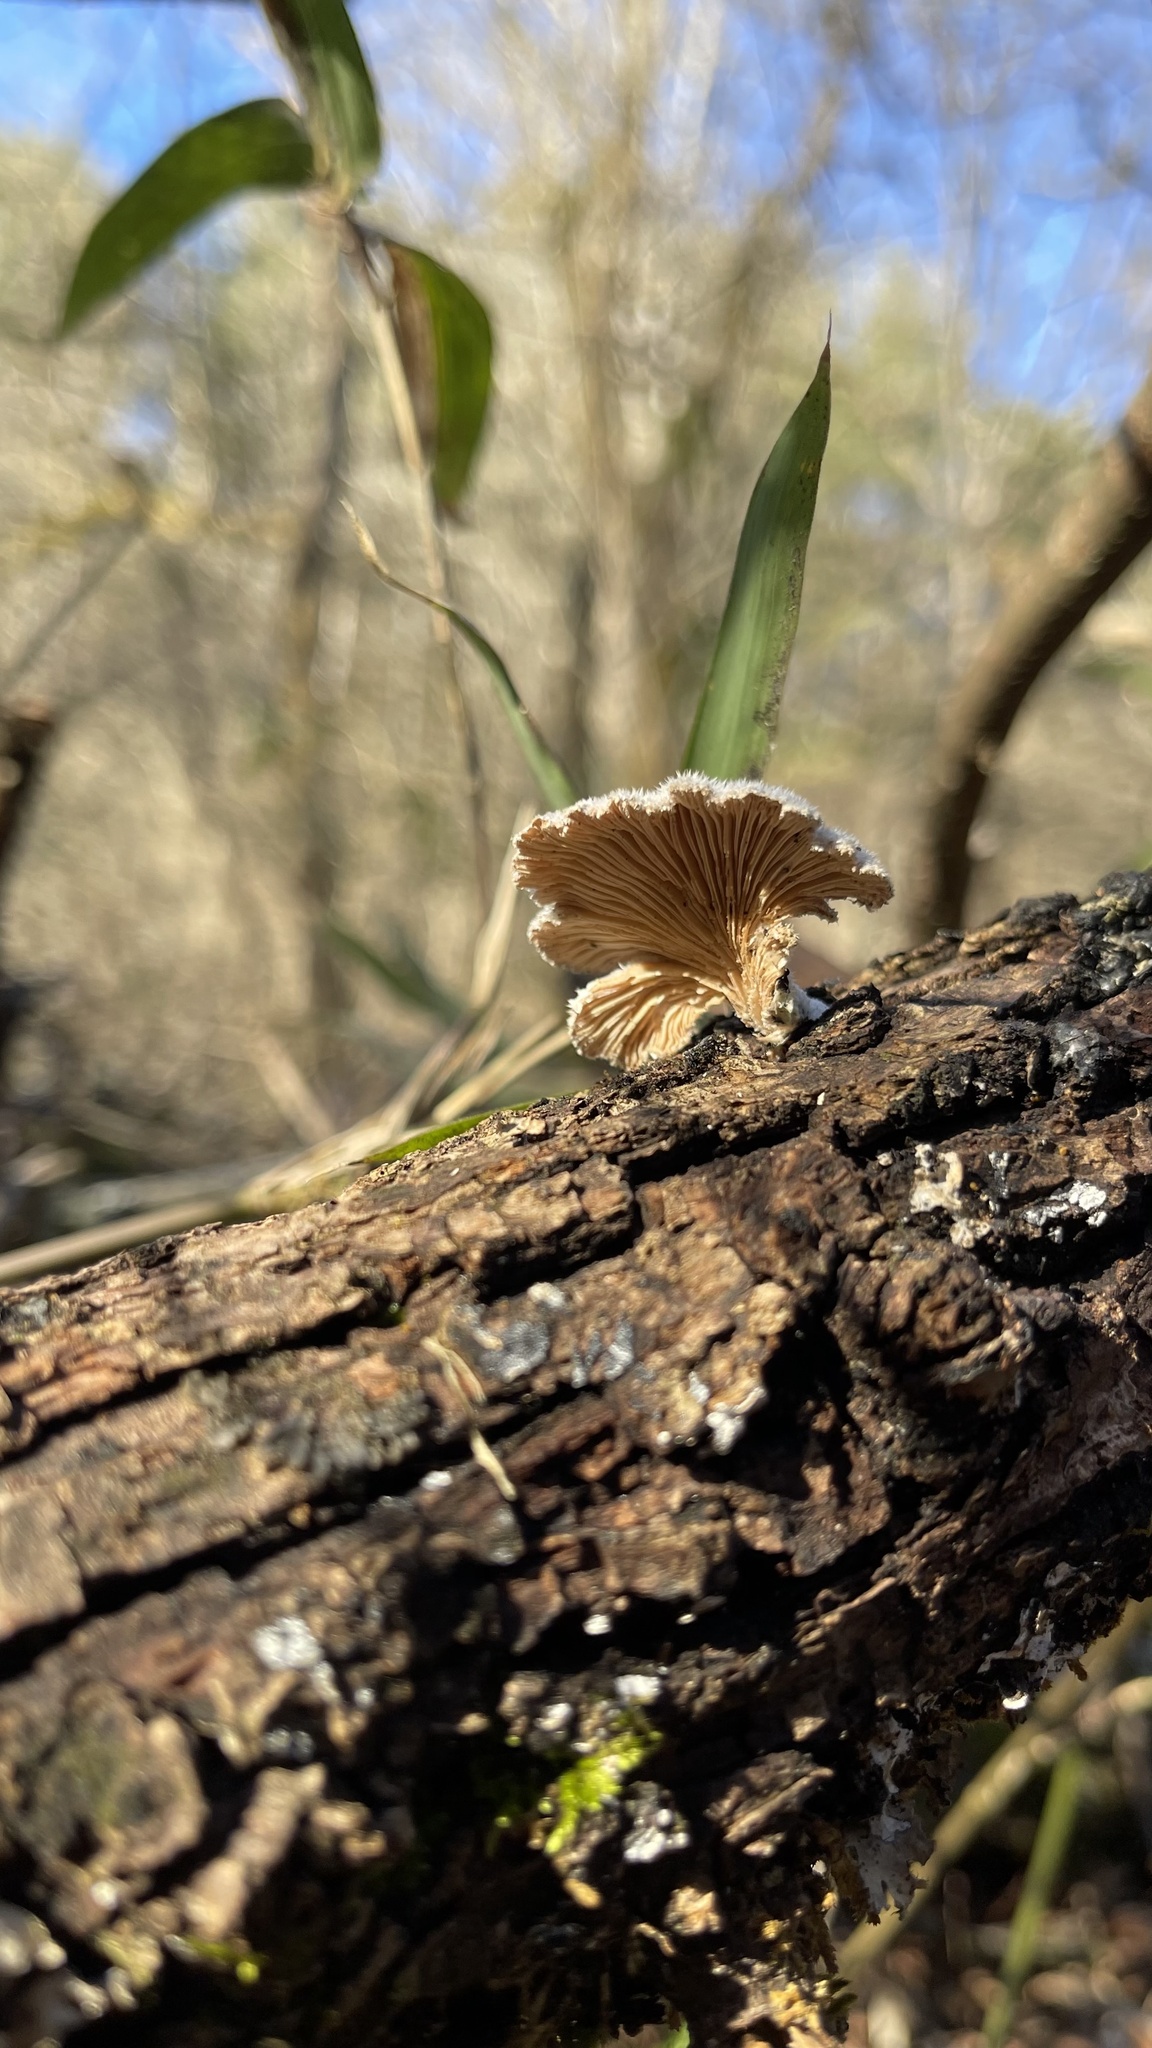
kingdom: Fungi
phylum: Basidiomycota
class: Agaricomycetes
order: Agaricales
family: Schizophyllaceae
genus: Schizophyllum
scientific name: Schizophyllum commune
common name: Common porecrust
